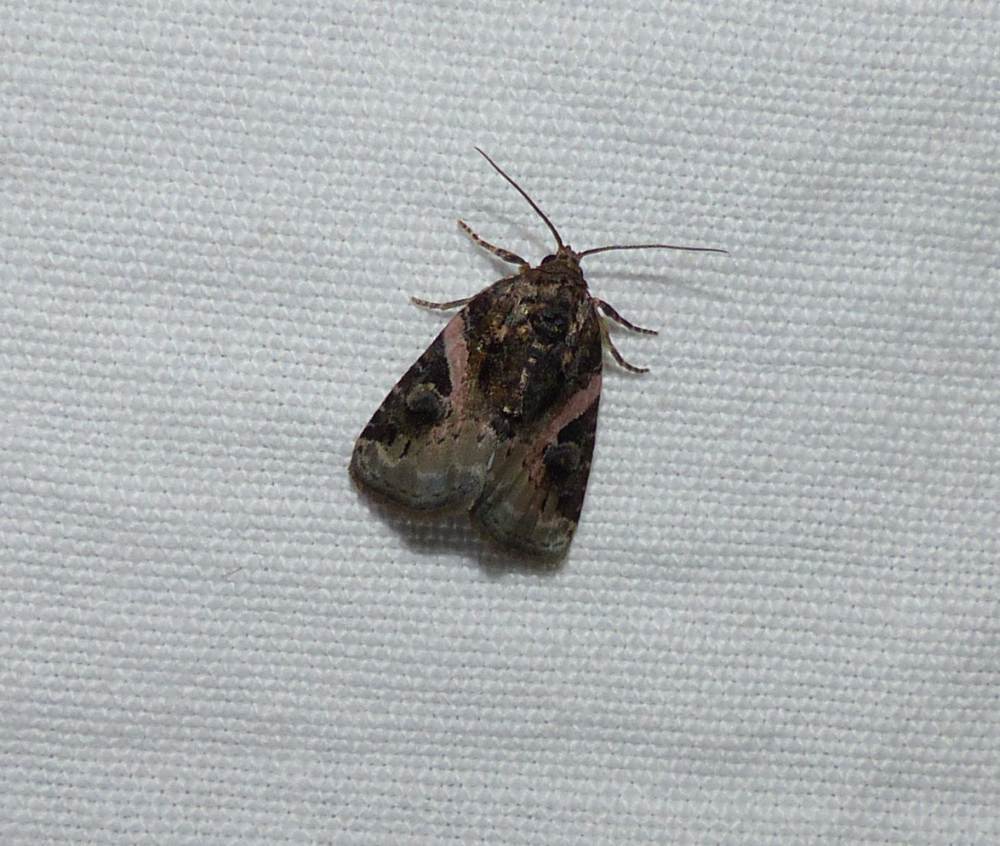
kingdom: Animalia
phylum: Arthropoda
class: Insecta
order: Lepidoptera
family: Noctuidae
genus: Pseudeustrotia
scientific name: Pseudeustrotia carneola
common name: Pink-barred lithacodia moth
